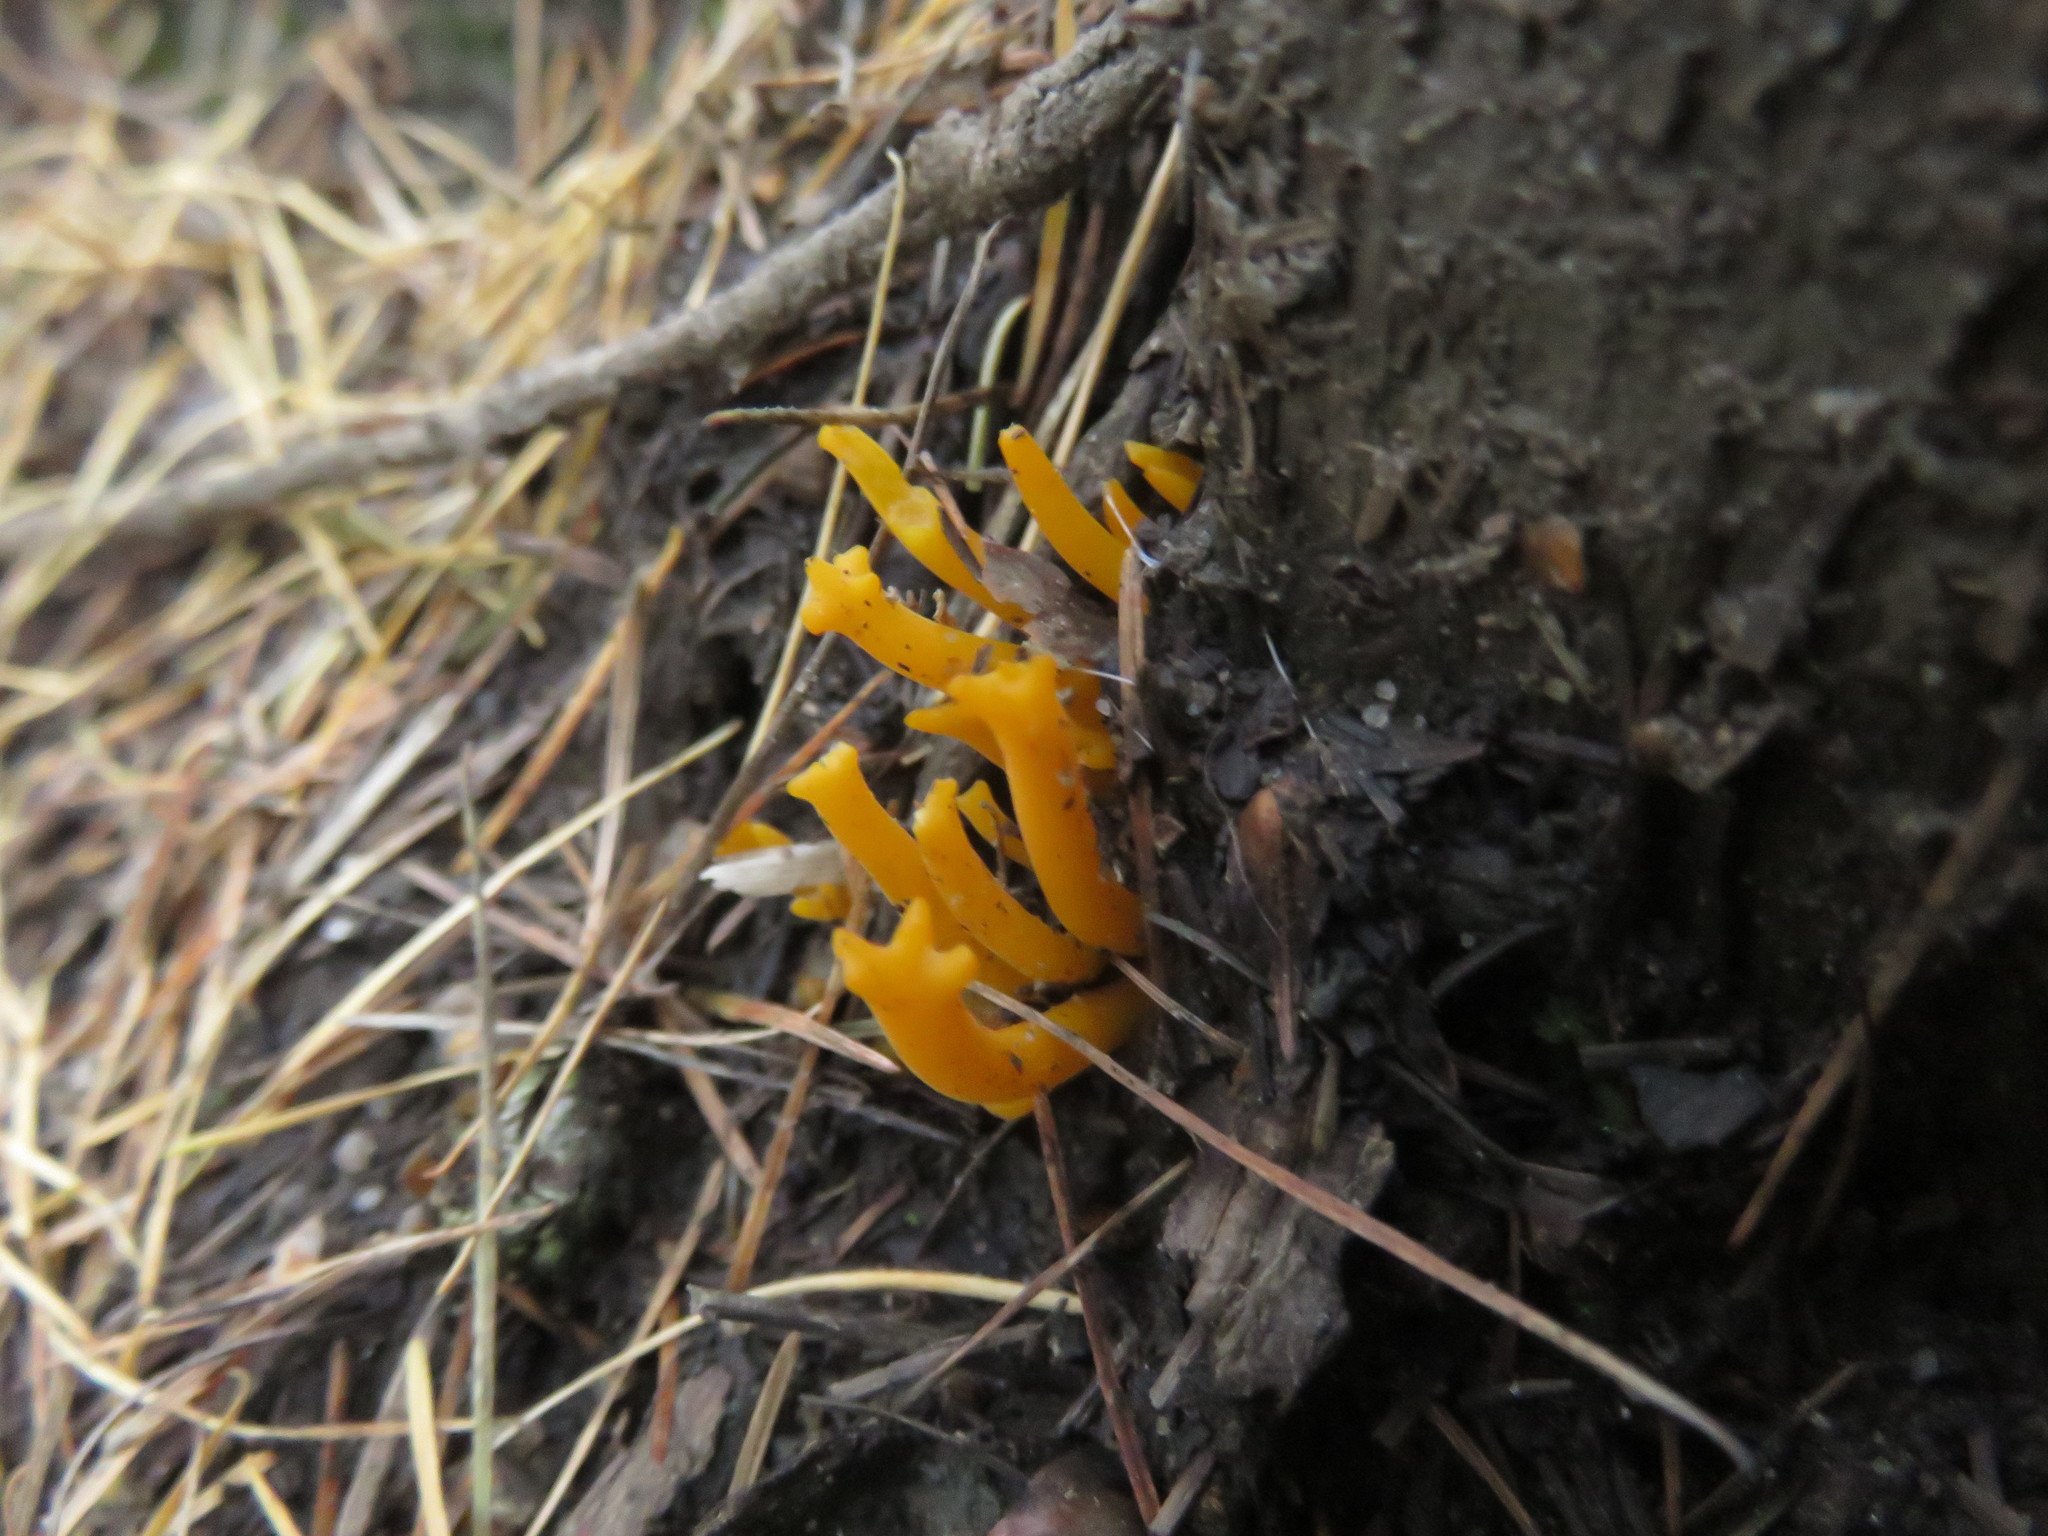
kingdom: Fungi
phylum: Basidiomycota
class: Dacrymycetes
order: Dacrymycetales
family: Dacrymycetaceae
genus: Calocera
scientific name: Calocera viscosa
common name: Yellow stagshorn
